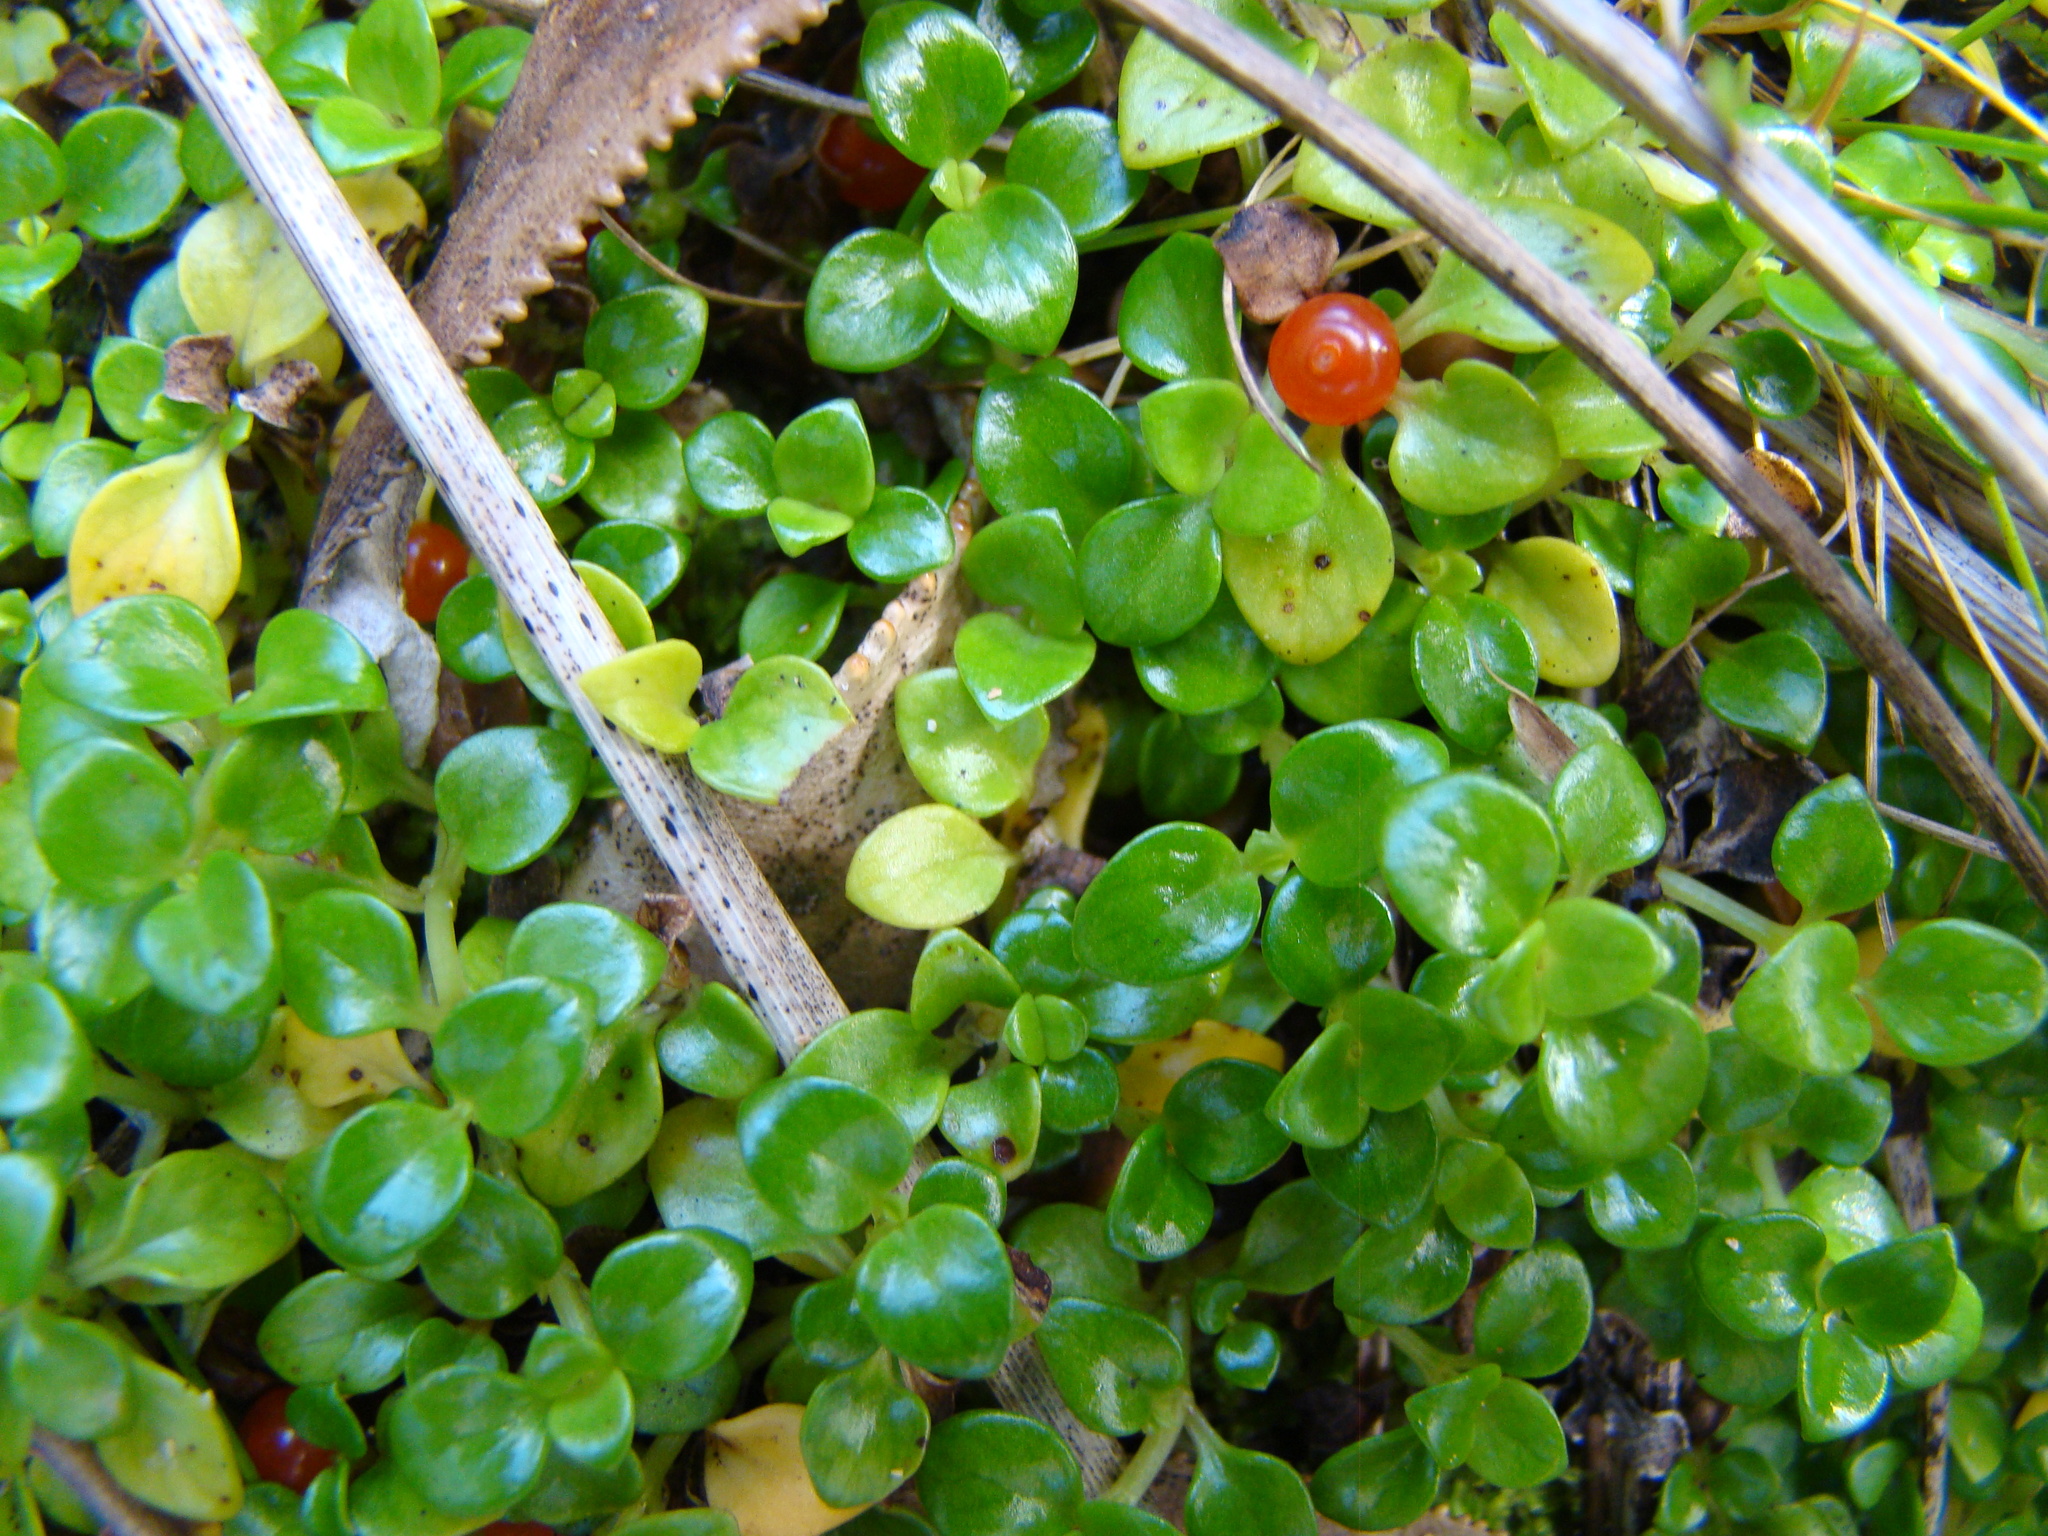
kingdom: Plantae
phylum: Tracheophyta
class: Magnoliopsida
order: Gentianales
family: Rubiaceae
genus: Nertera
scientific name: Nertera granadensis
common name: Beadplant
